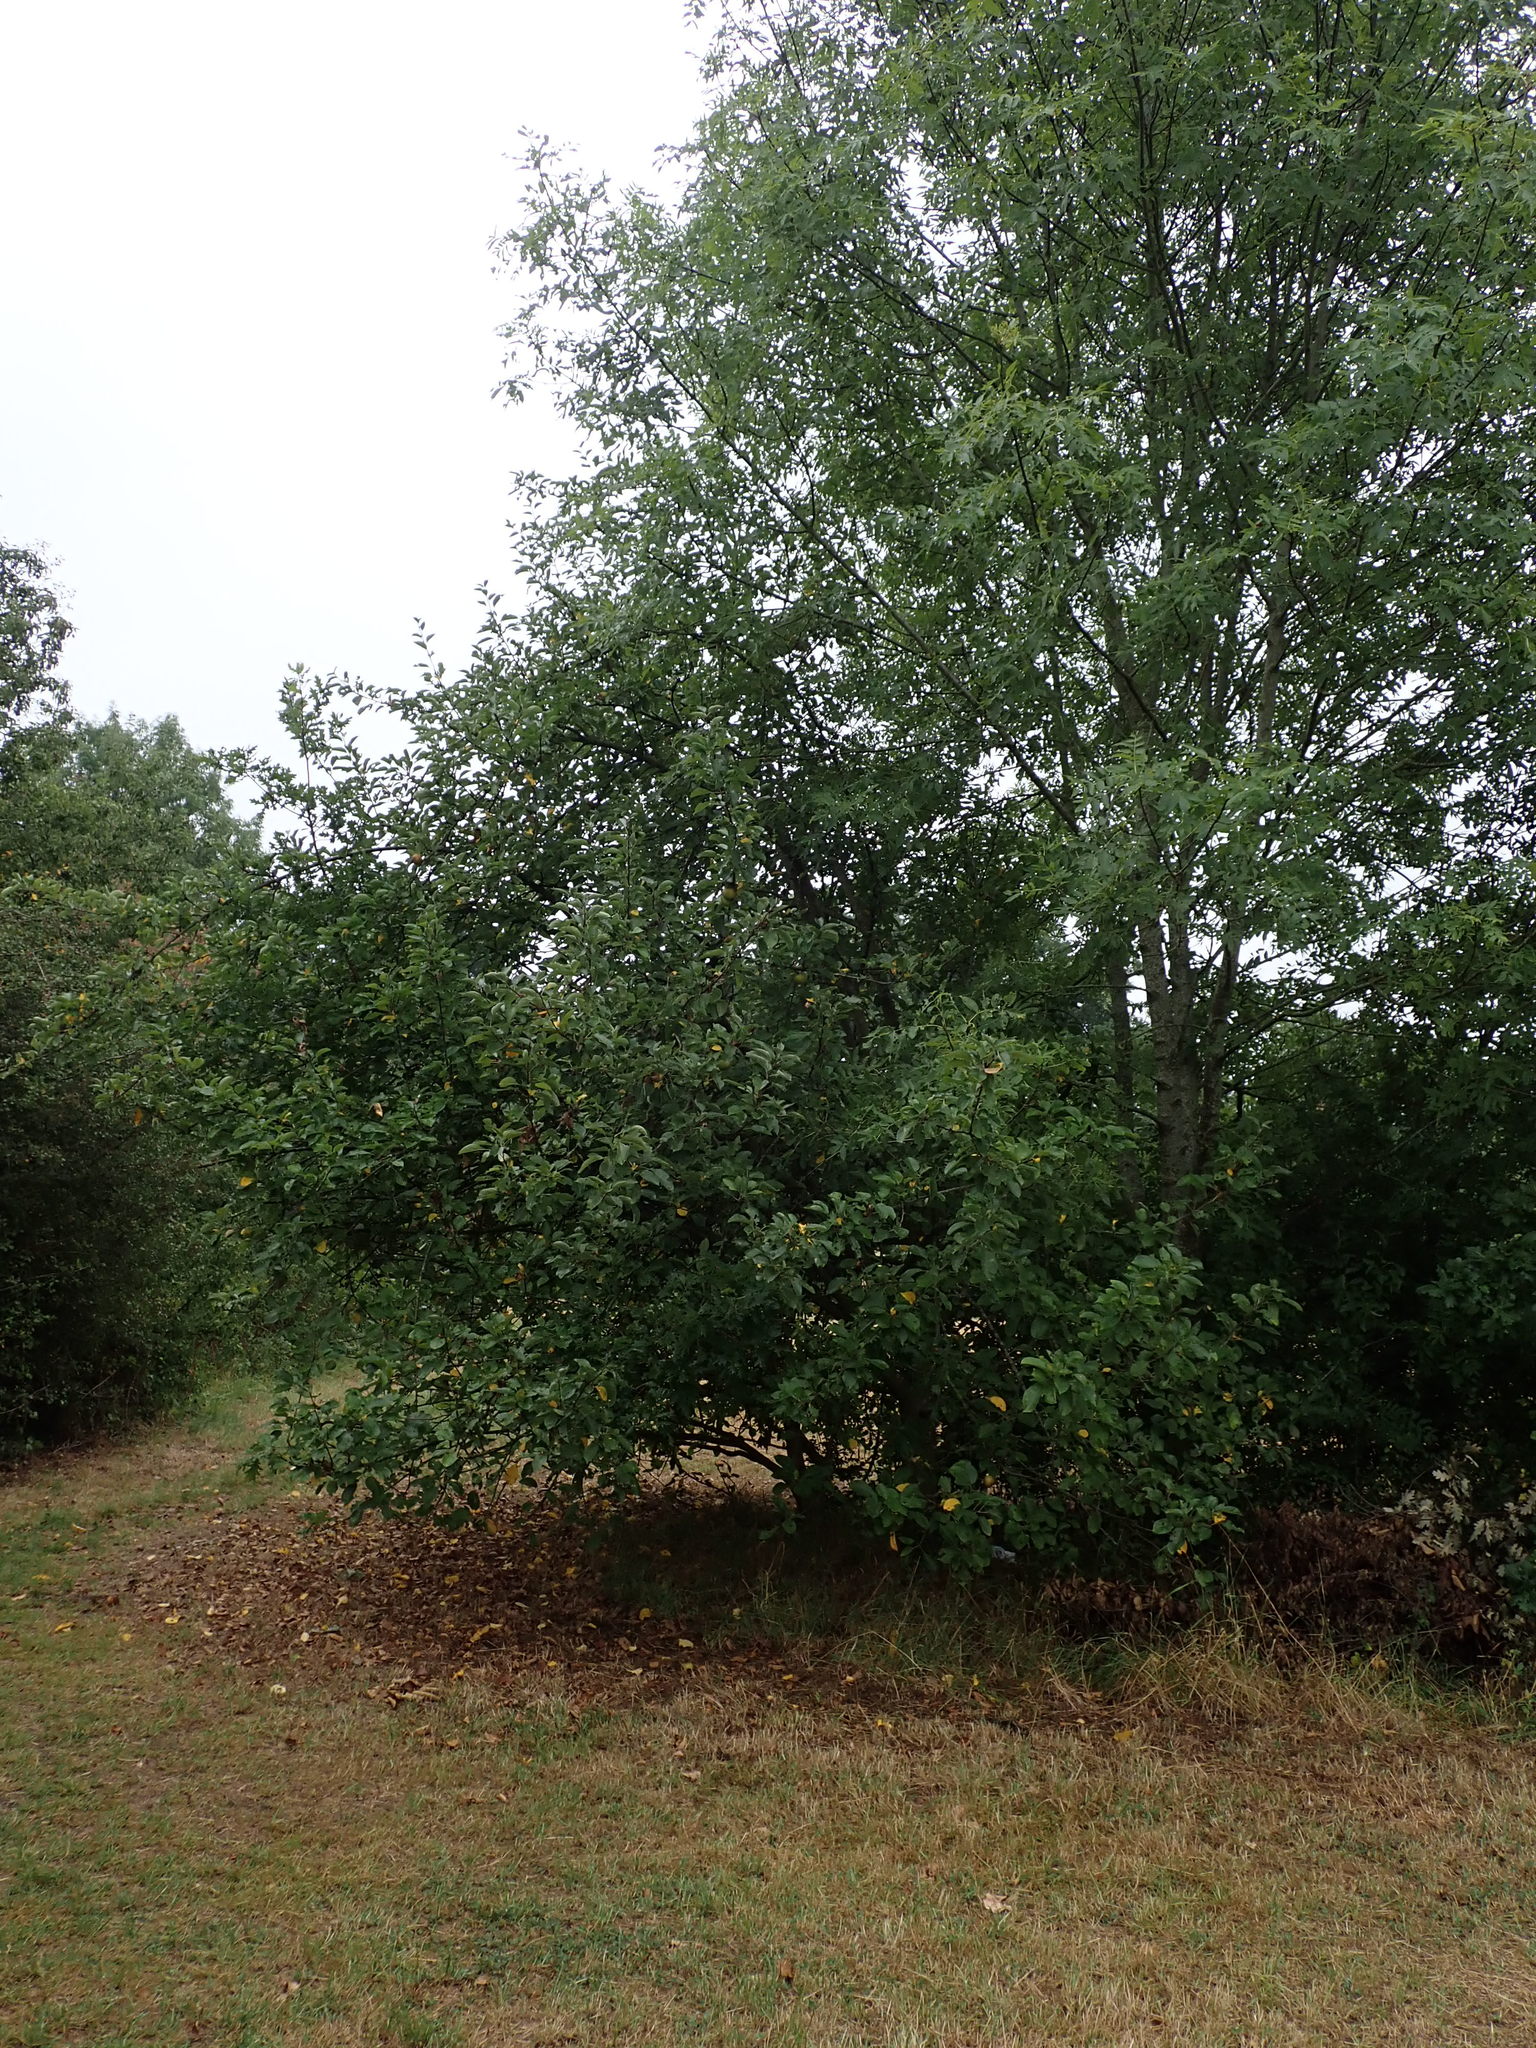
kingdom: Plantae
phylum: Tracheophyta
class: Magnoliopsida
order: Rosales
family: Rosaceae
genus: Malus
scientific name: Malus domestica
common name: Apple
